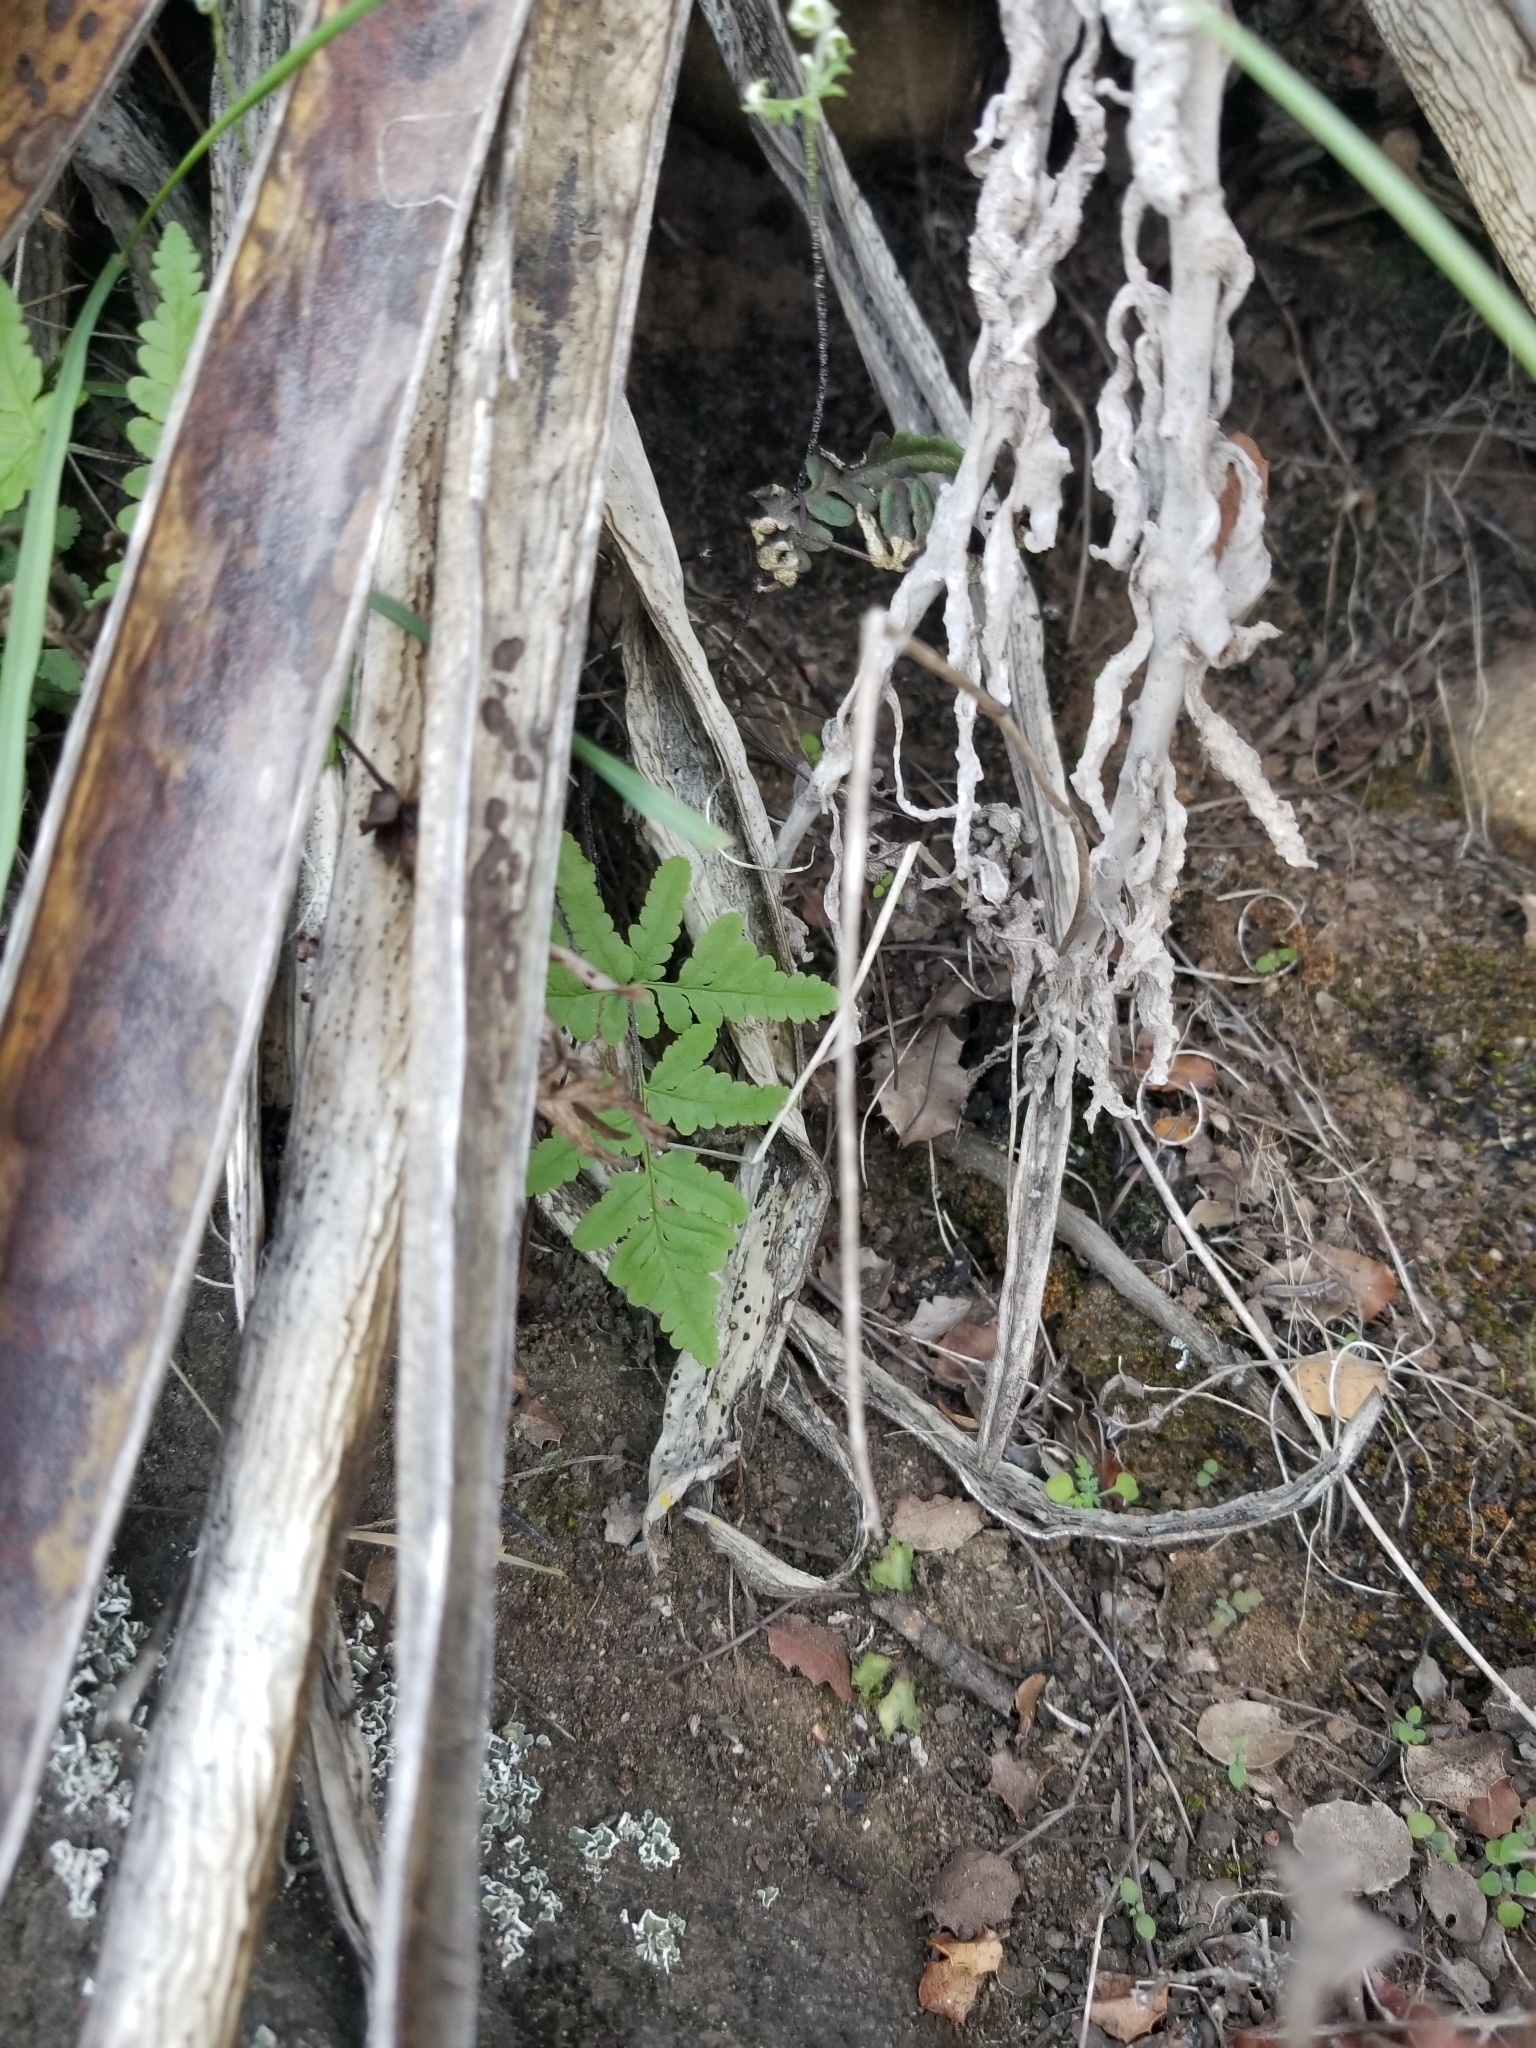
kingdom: Plantae
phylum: Tracheophyta
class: Polypodiopsida
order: Polypodiales
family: Pteridaceae
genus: Pentagramma
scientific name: Pentagramma viscosa
